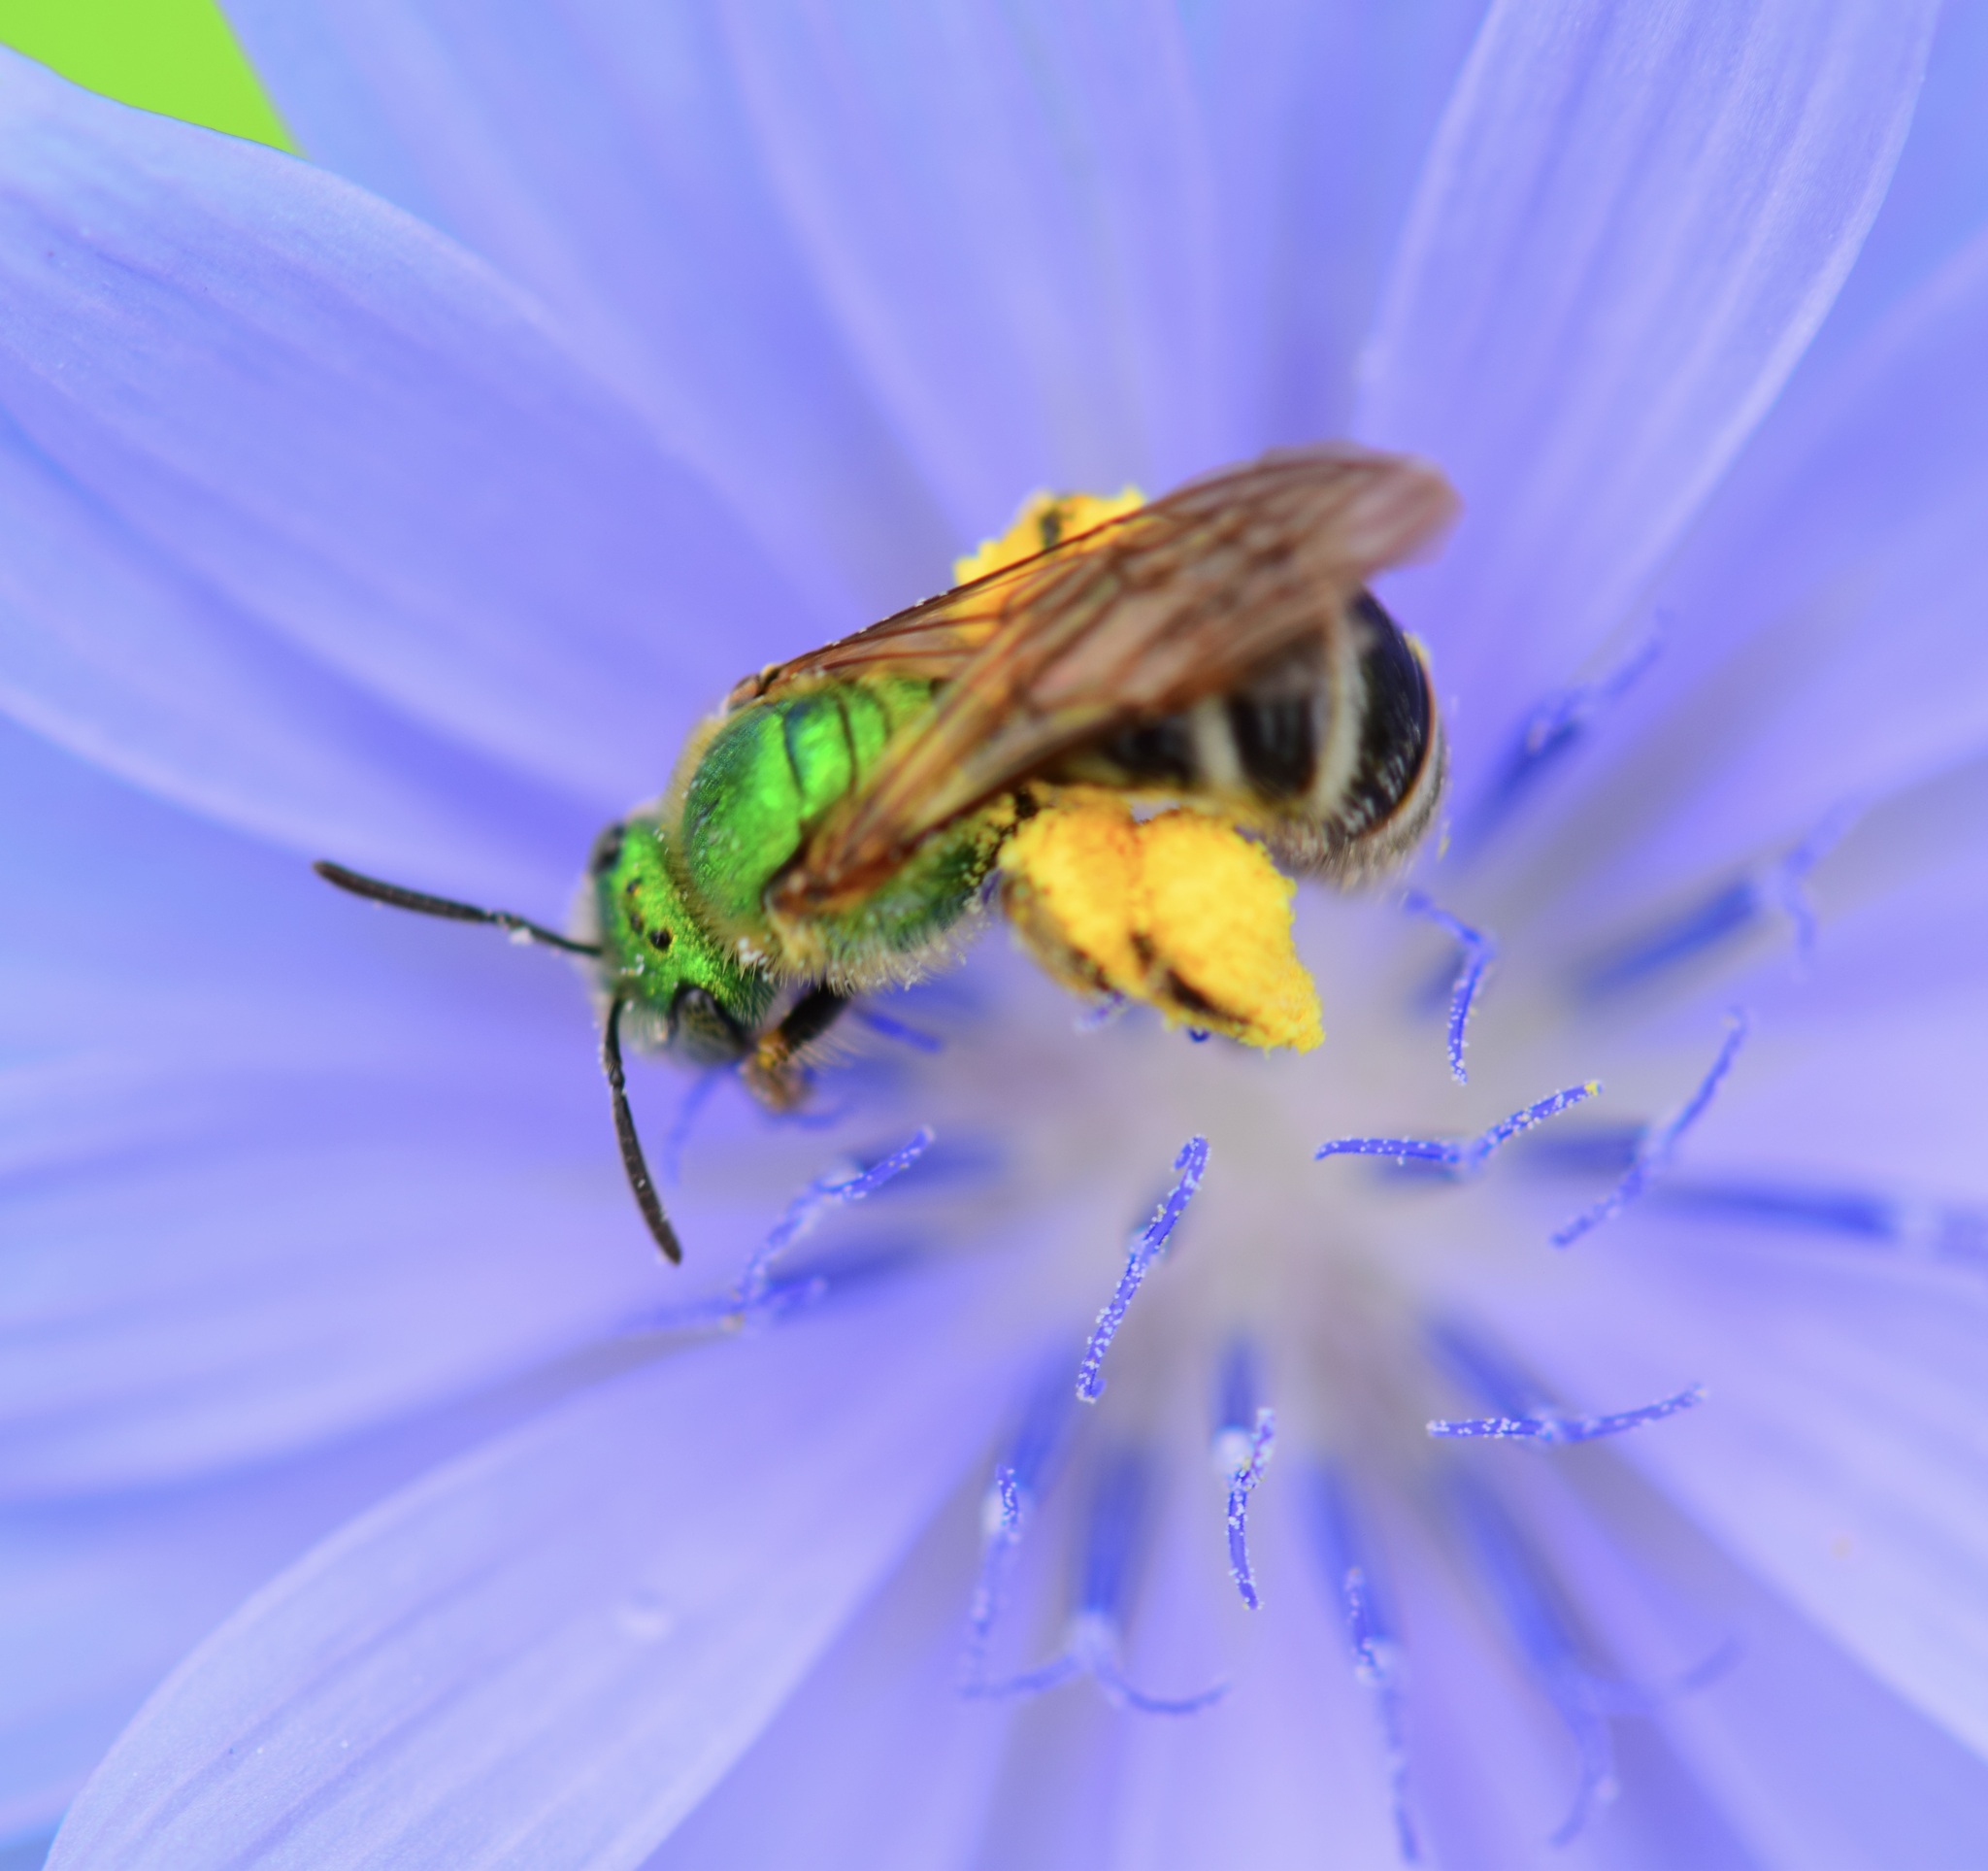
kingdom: Animalia
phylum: Arthropoda
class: Insecta
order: Hymenoptera
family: Halictidae
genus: Agapostemon
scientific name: Agapostemon virescens
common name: Bicolored striped sweat bee
